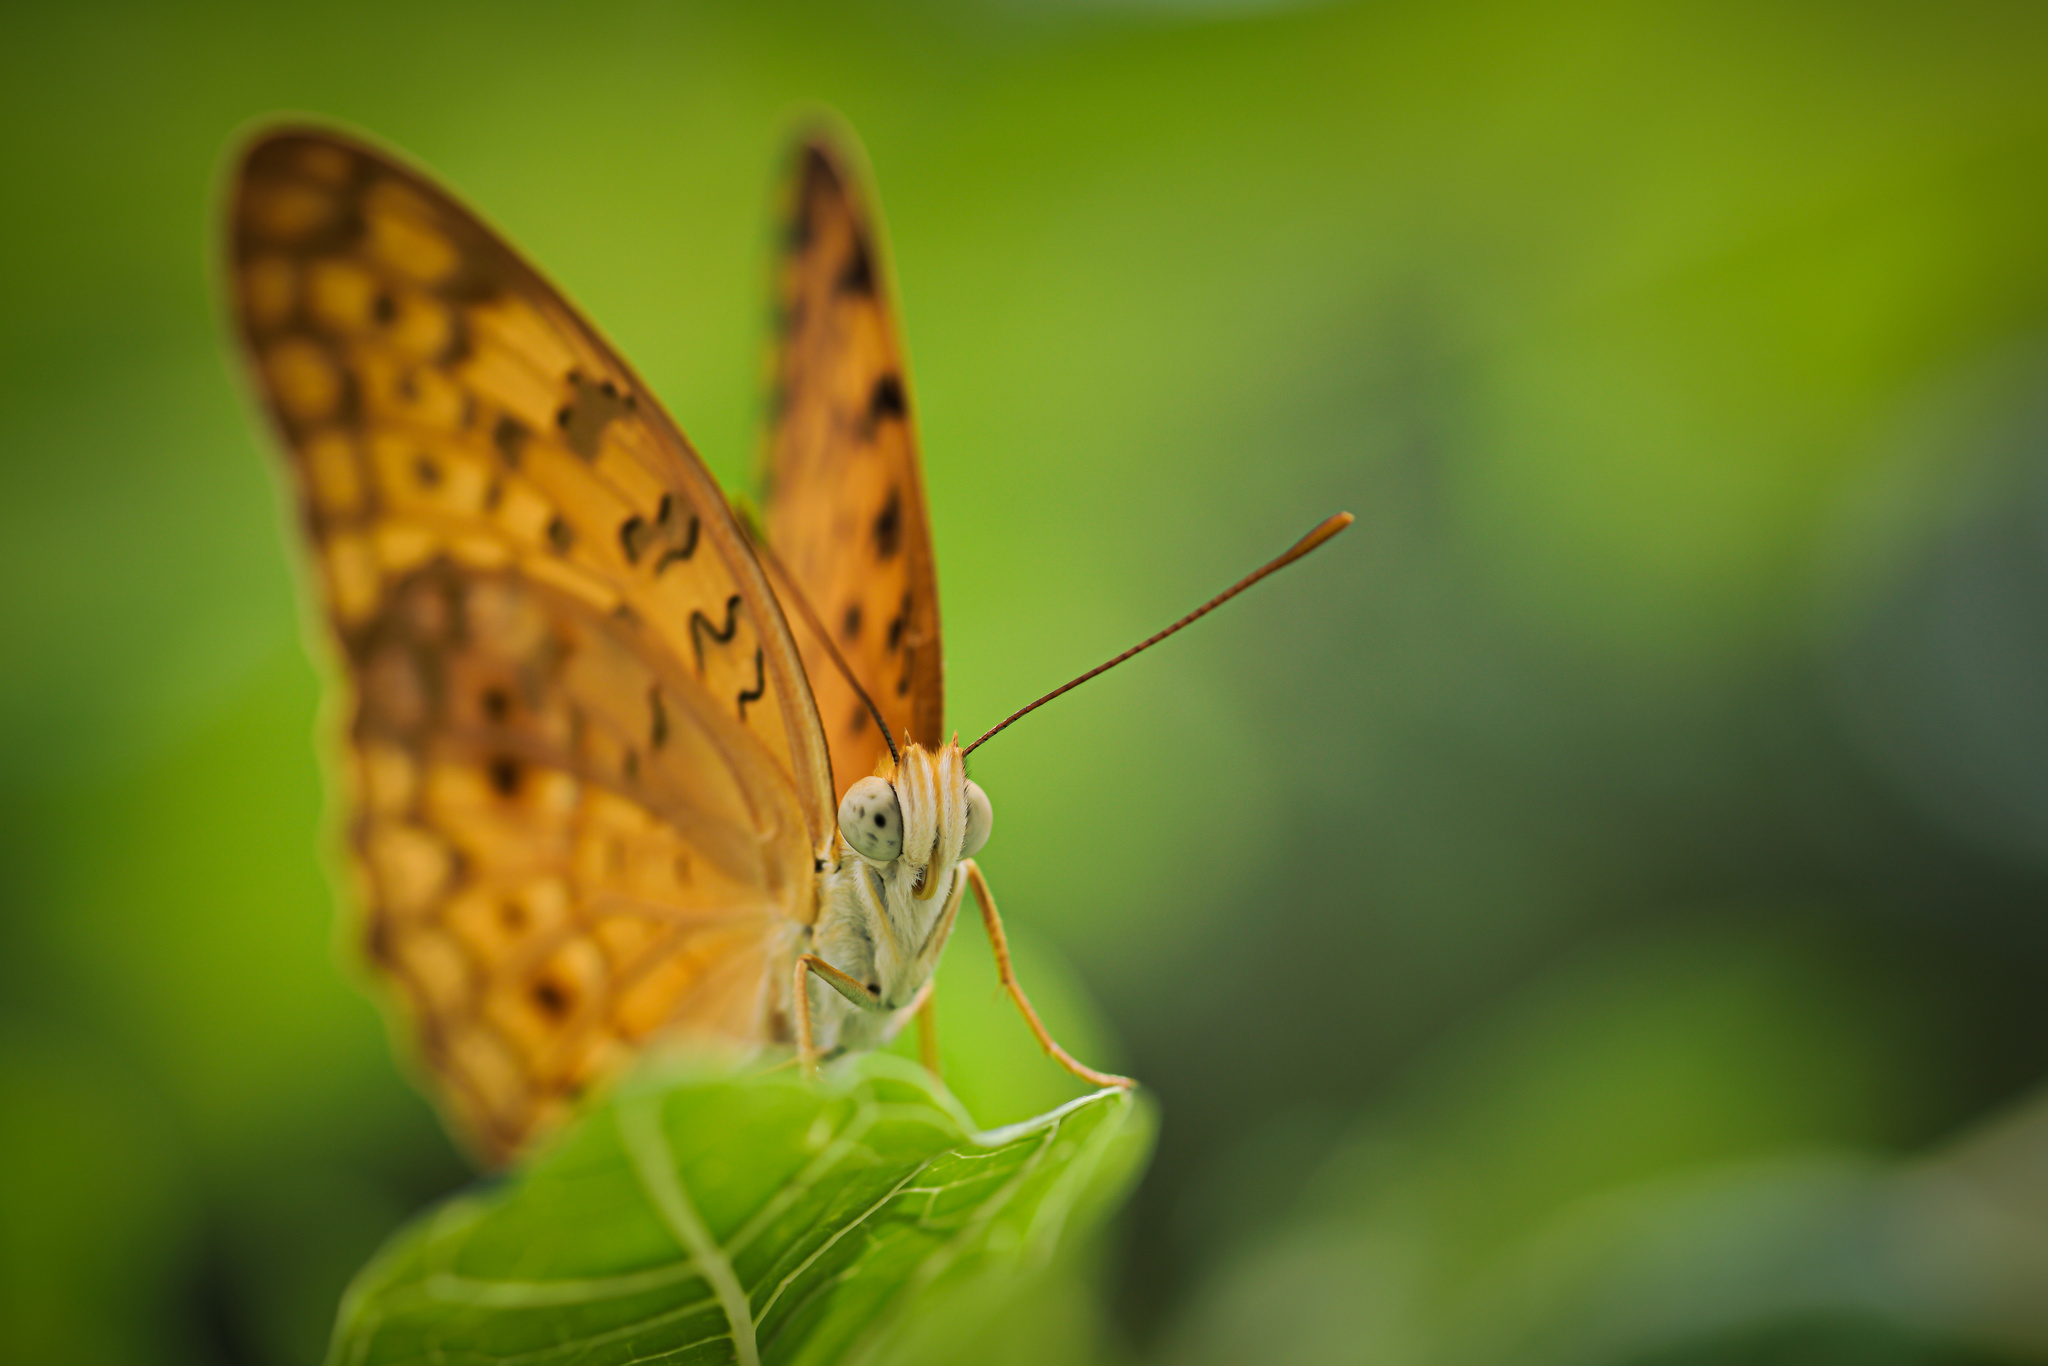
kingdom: Animalia
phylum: Arthropoda
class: Insecta
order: Lepidoptera
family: Nymphalidae
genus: Phalanta
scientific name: Phalanta phalantha
